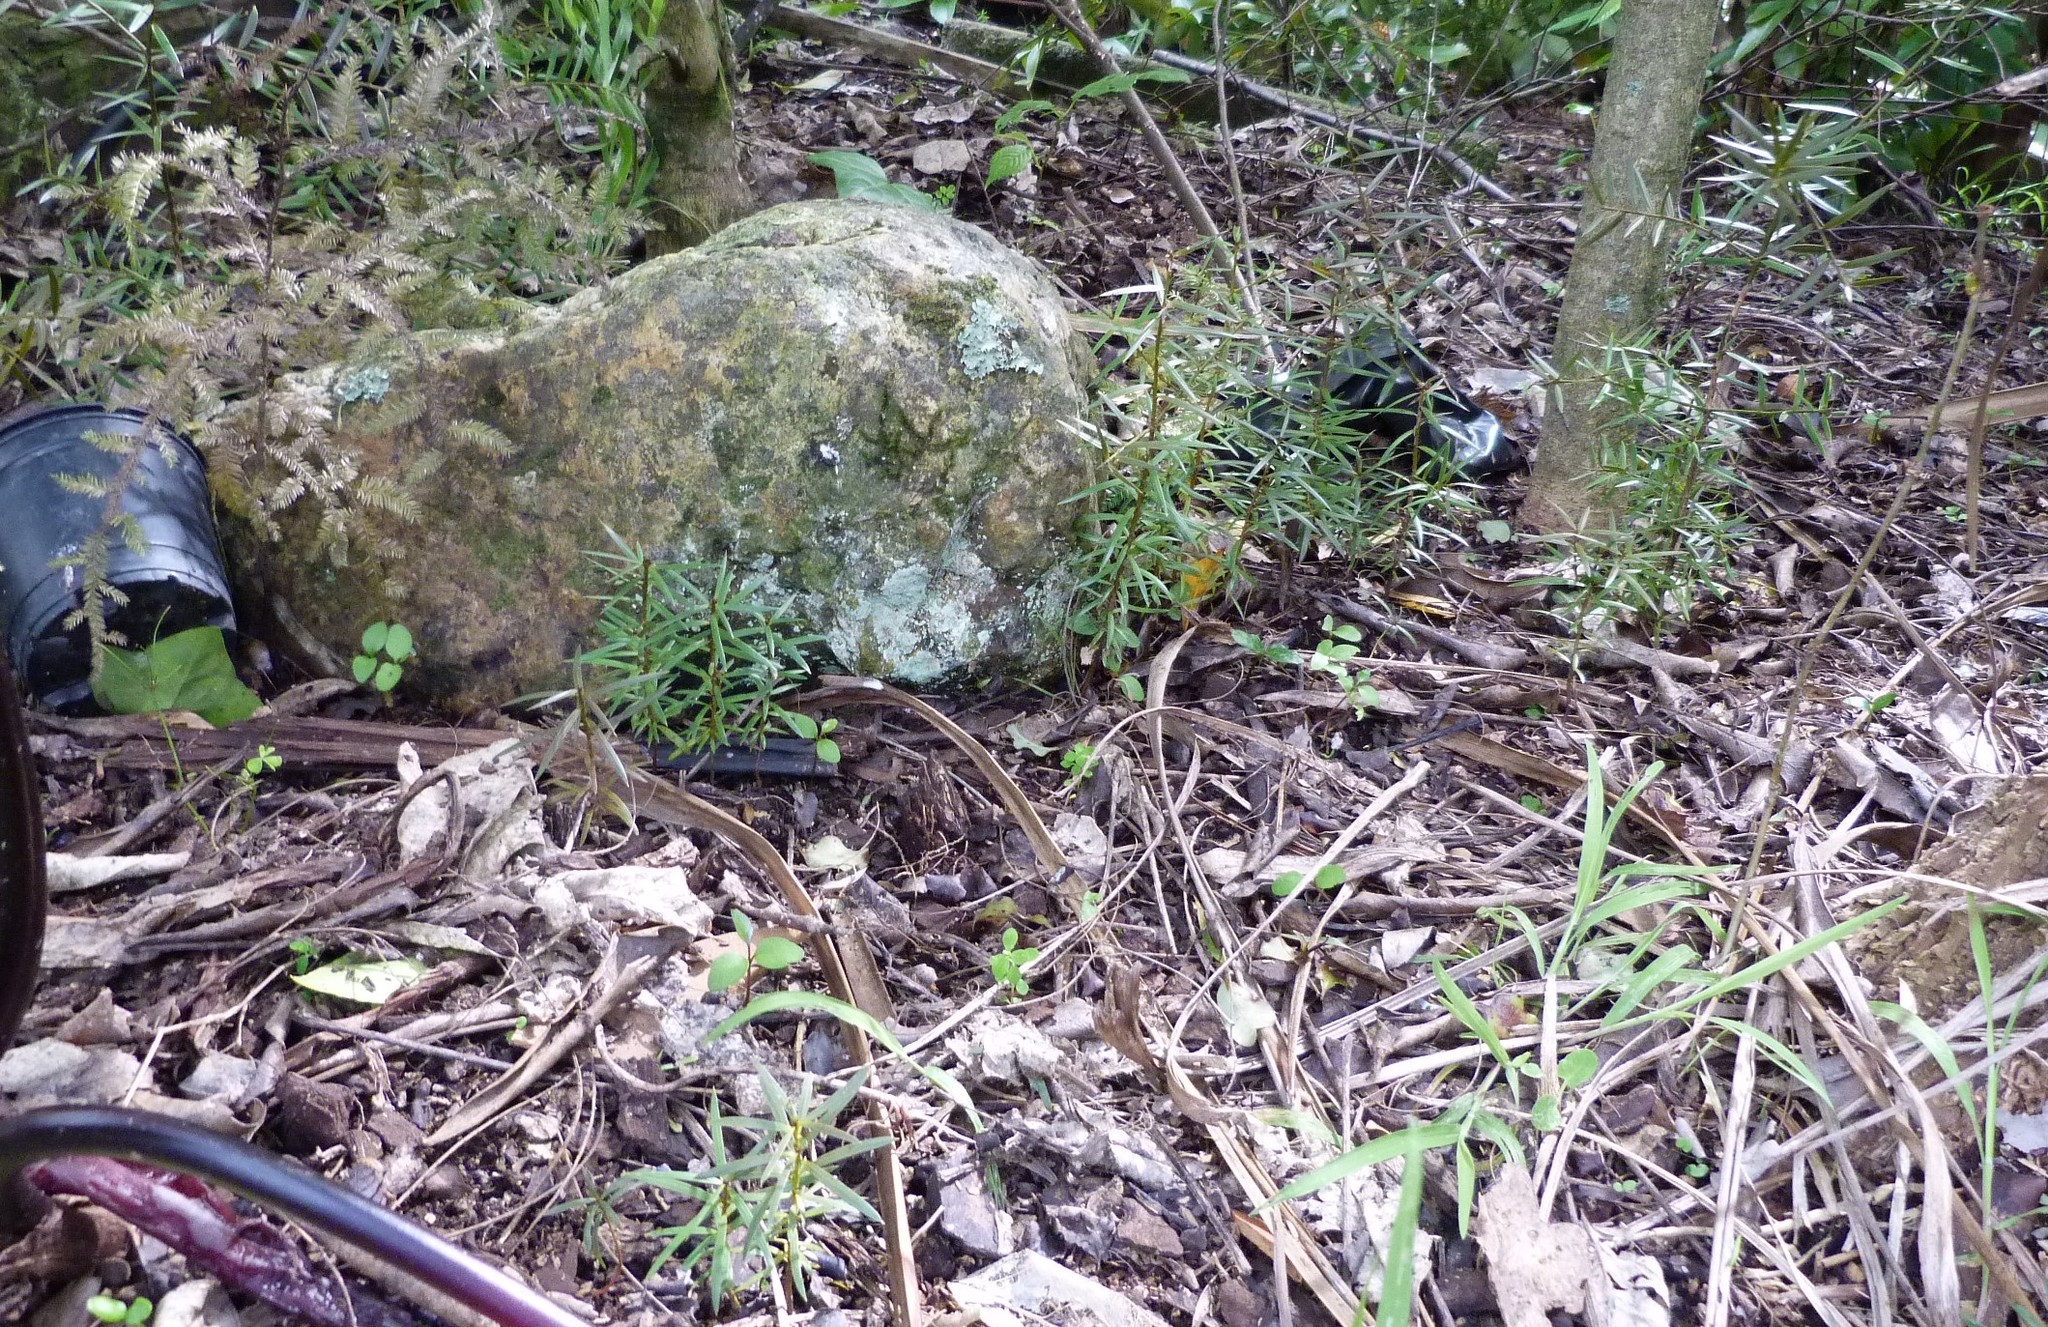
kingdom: Plantae
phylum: Tracheophyta
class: Pinopsida
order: Pinales
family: Podocarpaceae
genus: Podocarpus
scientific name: Podocarpus totara
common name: Totara
